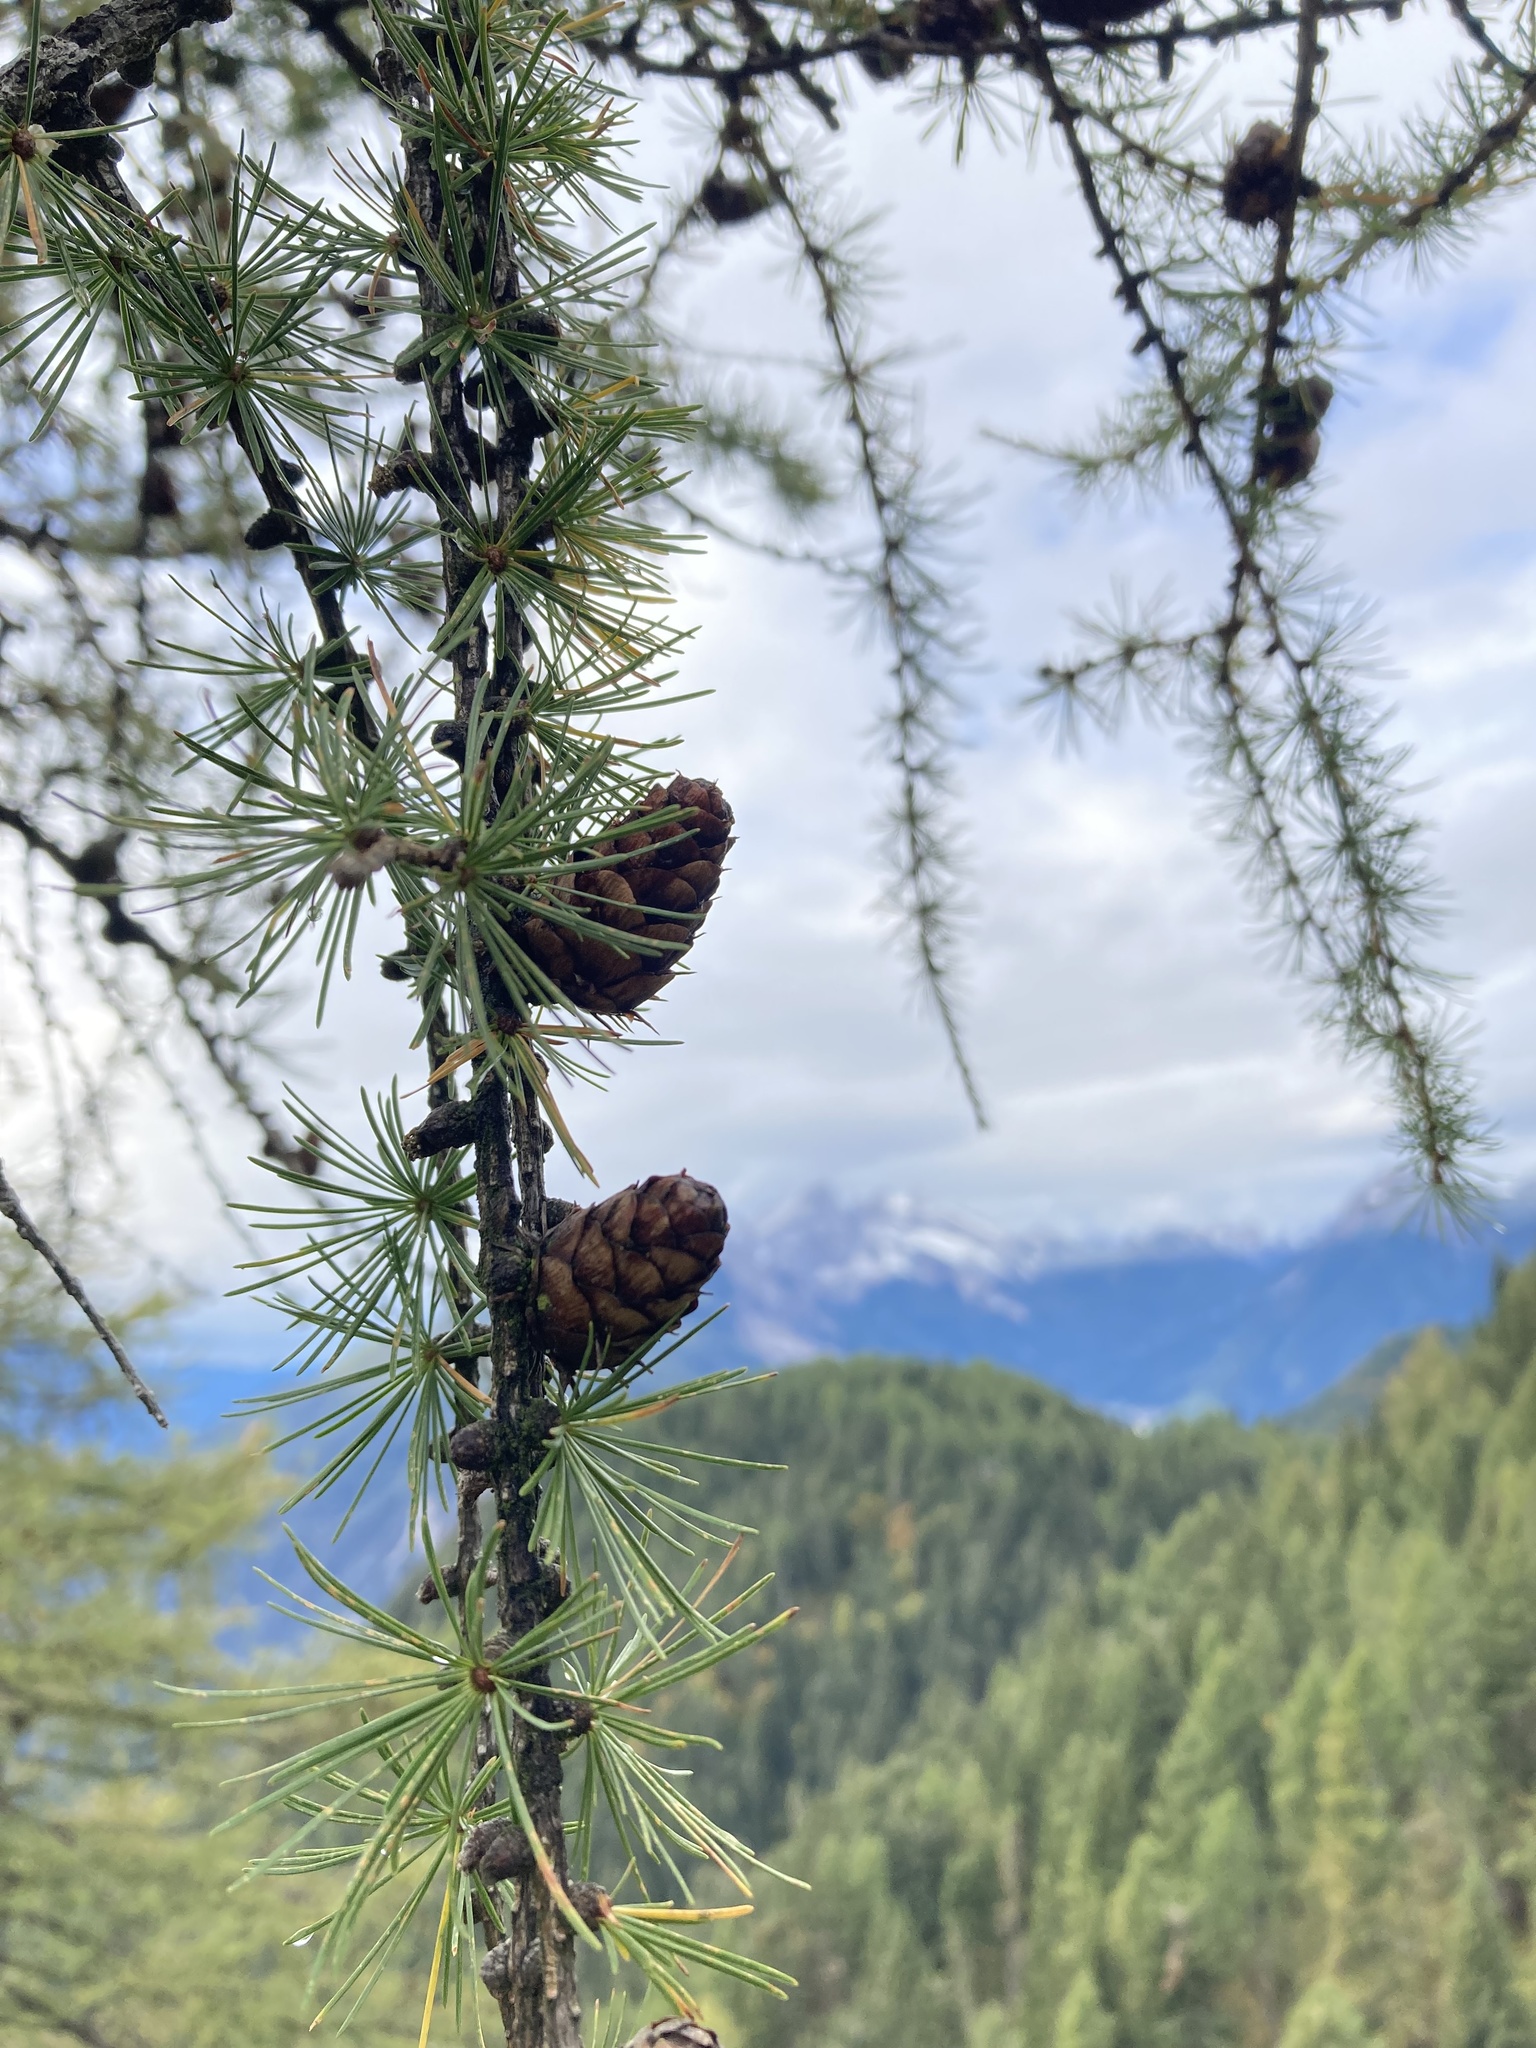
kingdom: Plantae
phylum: Tracheophyta
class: Pinopsida
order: Pinales
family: Pinaceae
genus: Larix
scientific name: Larix decidua
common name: European larch
